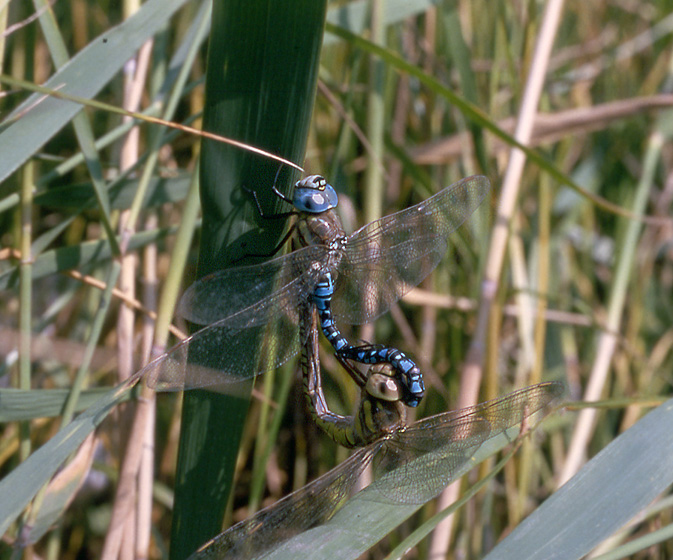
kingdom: Animalia
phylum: Arthropoda
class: Insecta
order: Odonata
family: Aeshnidae
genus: Aeshna
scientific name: Aeshna soneharai
